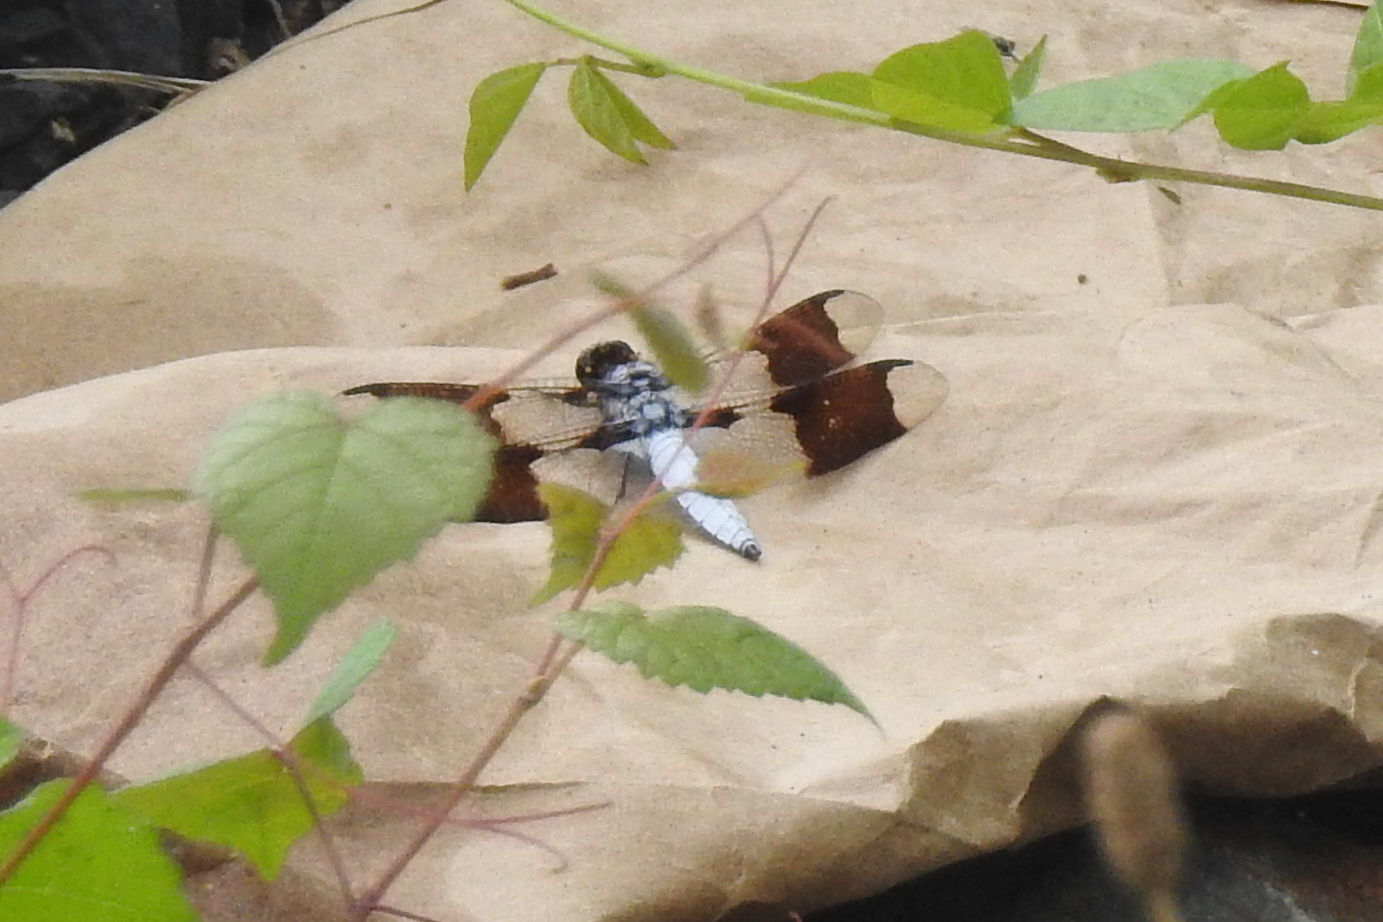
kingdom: Animalia
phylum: Arthropoda
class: Insecta
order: Odonata
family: Libellulidae
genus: Plathemis
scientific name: Plathemis lydia
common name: Common whitetail
